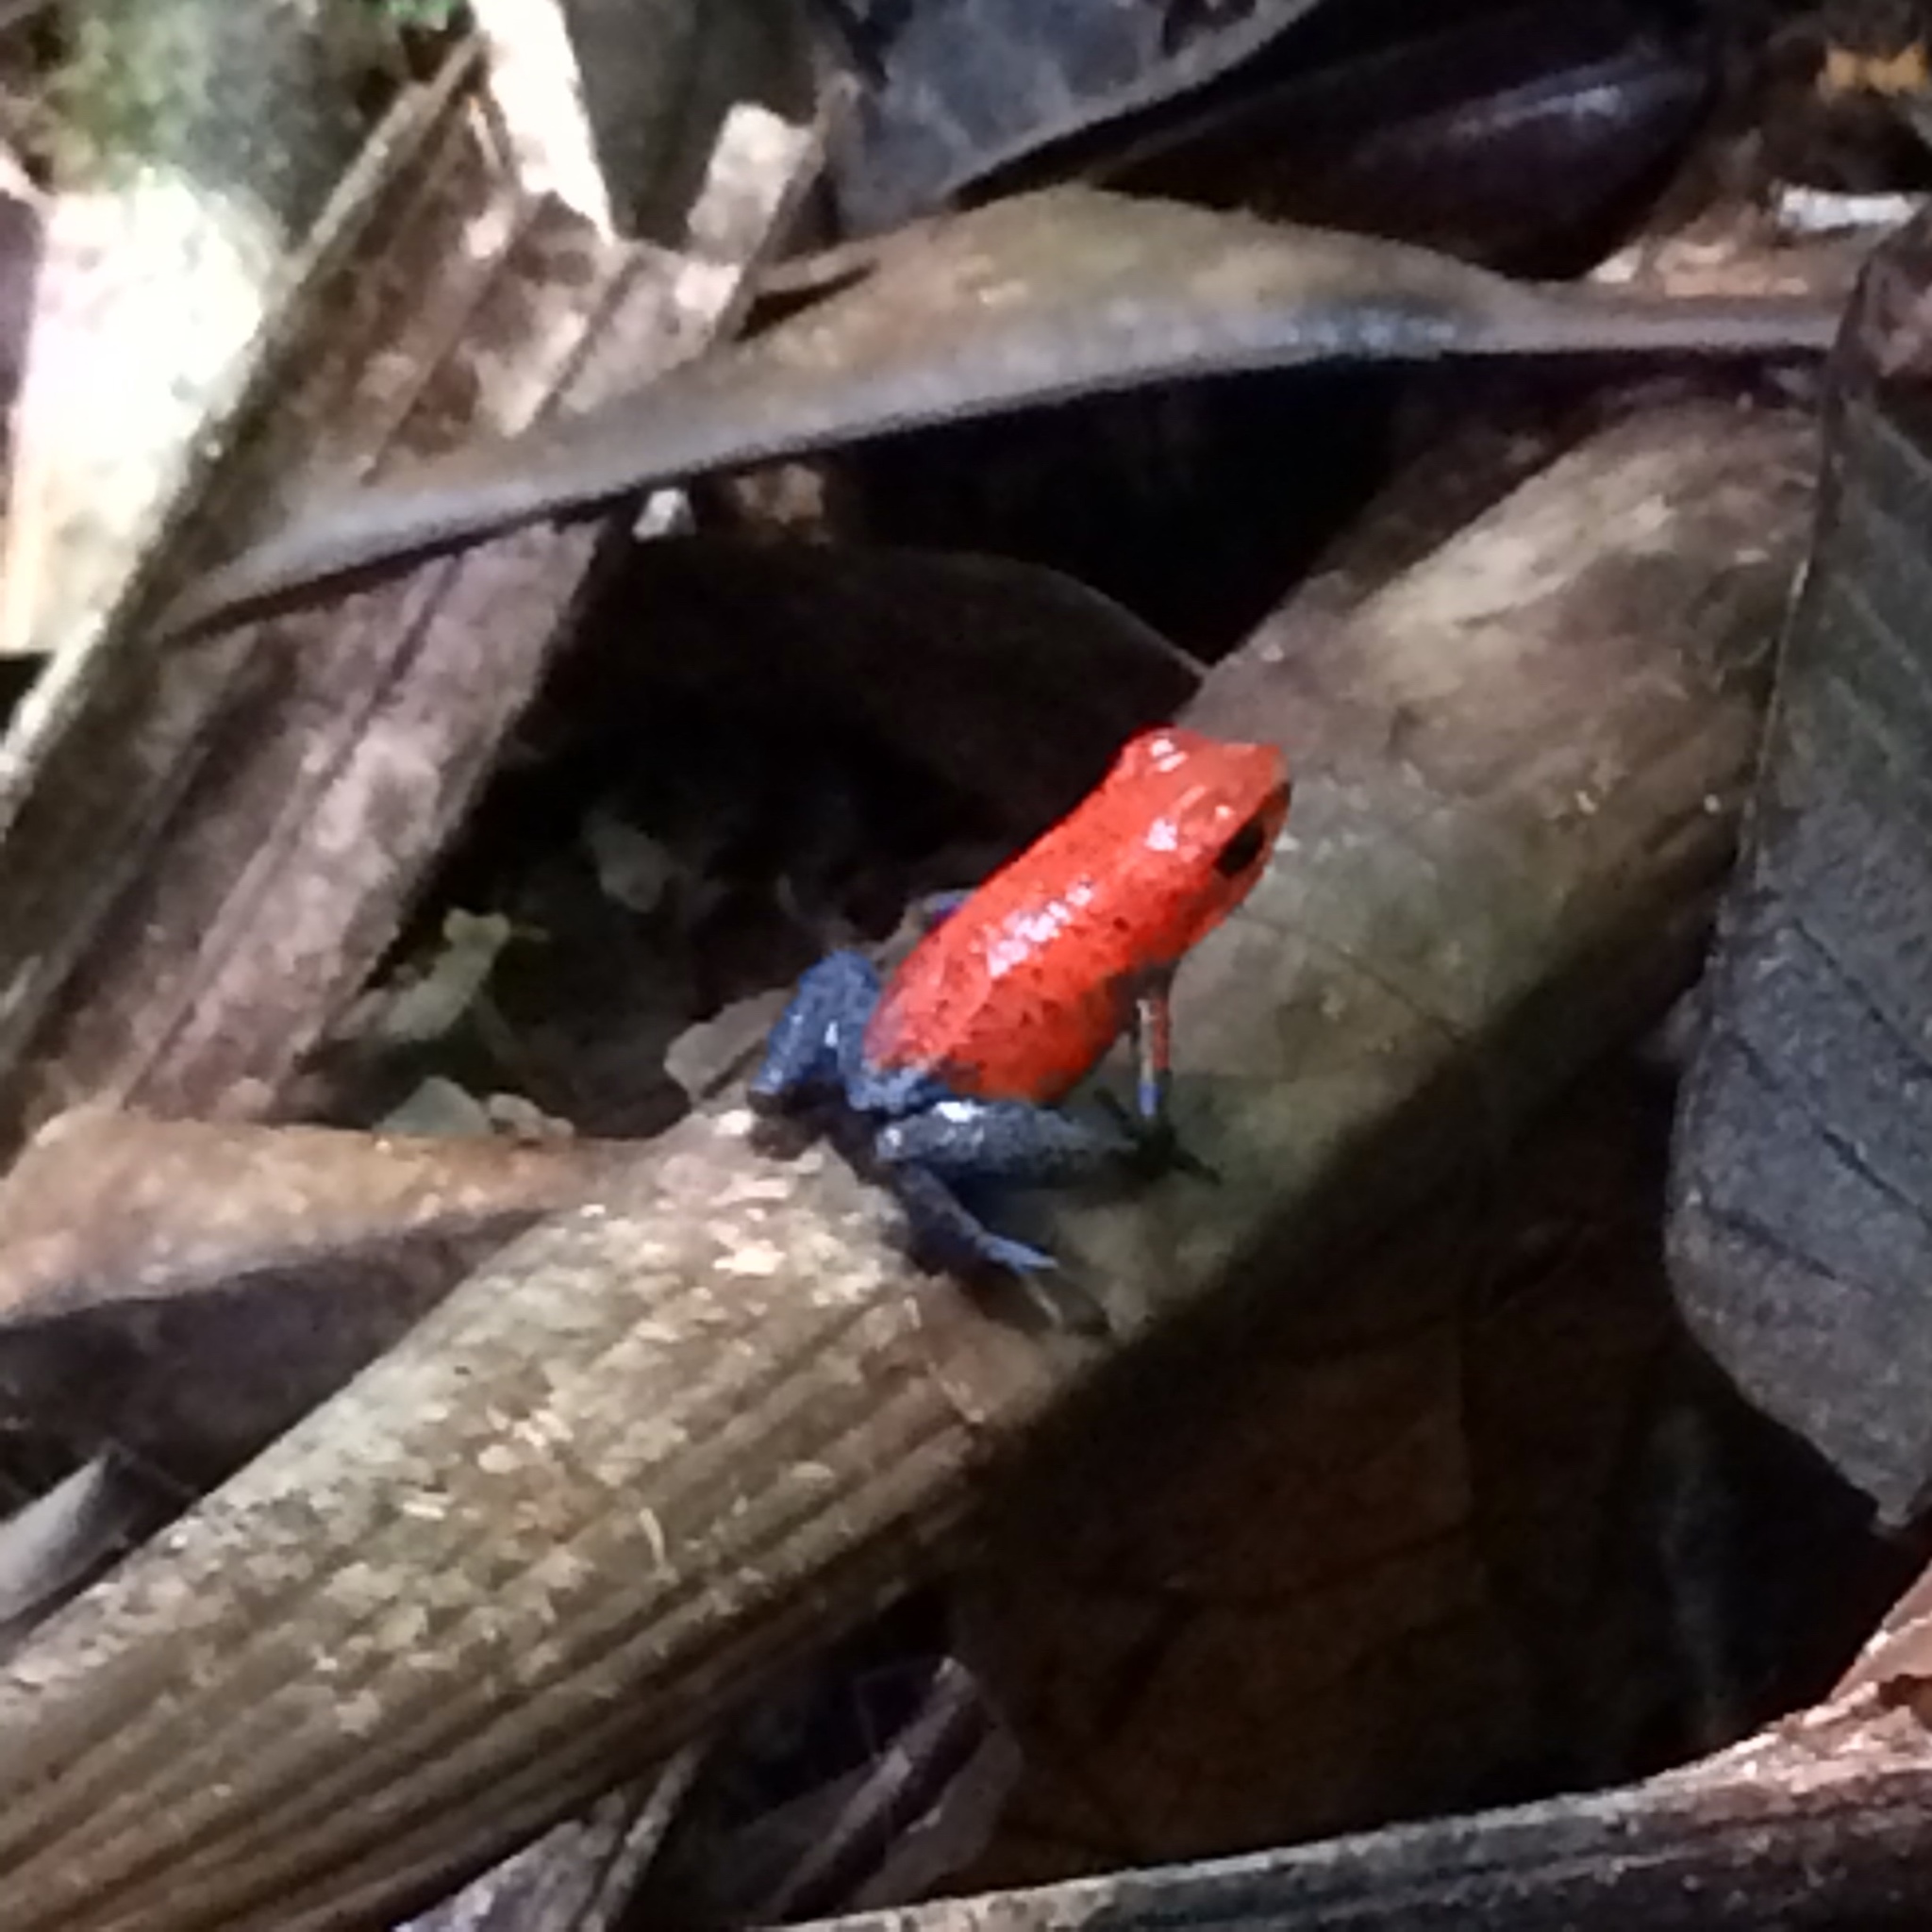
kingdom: Animalia
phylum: Chordata
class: Amphibia
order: Anura
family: Dendrobatidae
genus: Oophaga
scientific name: Oophaga pumilio
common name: Flaming poison frog
